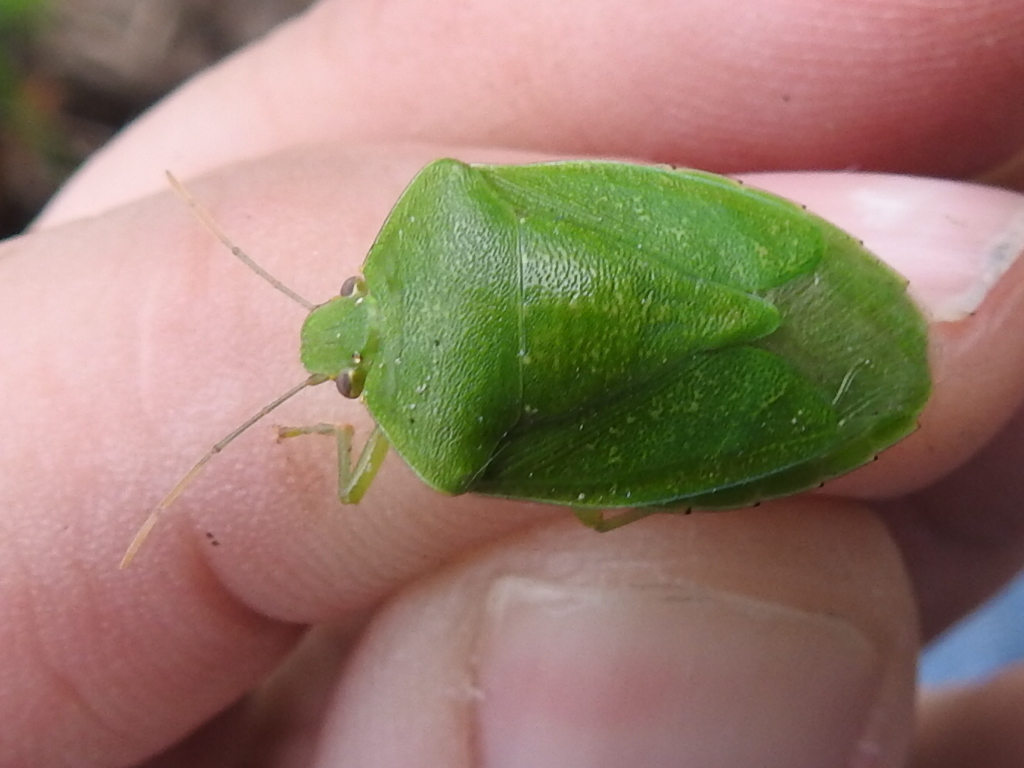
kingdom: Animalia
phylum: Arthropoda
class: Insecta
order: Hemiptera
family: Pentatomidae
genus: Chinavia
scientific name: Chinavia hilaris
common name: Green stink bug
